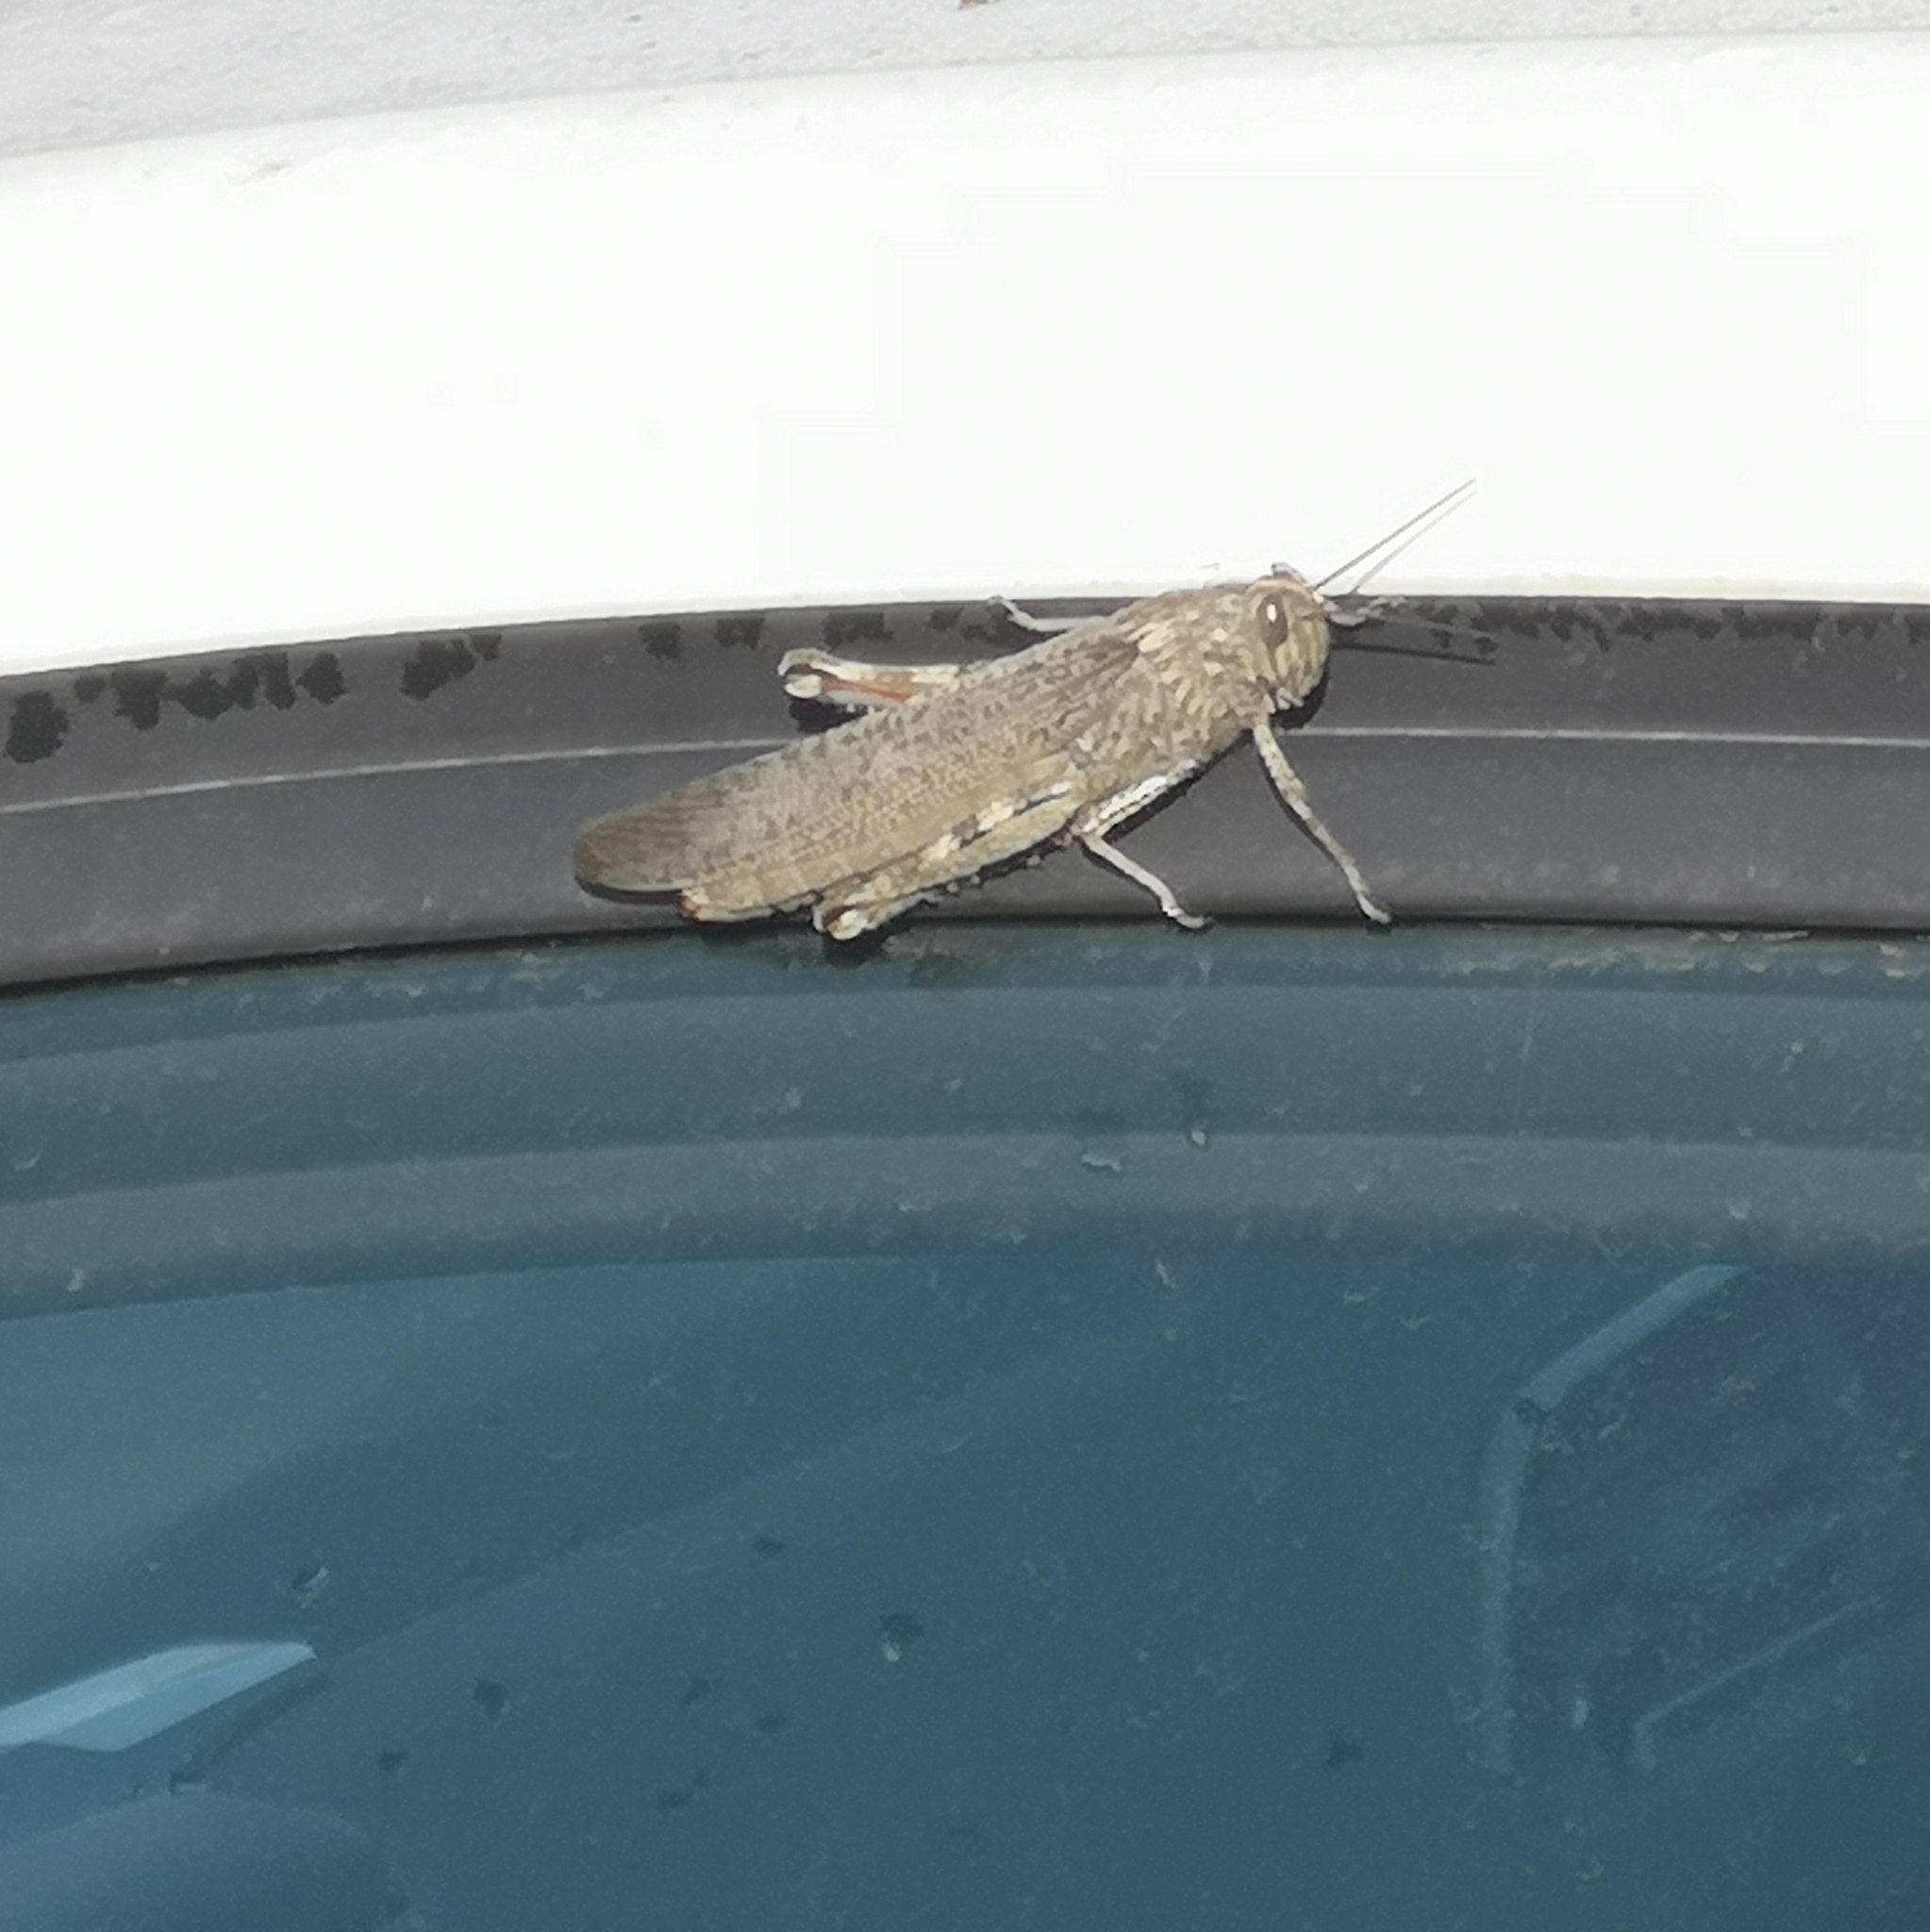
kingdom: Animalia
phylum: Arthropoda
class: Insecta
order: Orthoptera
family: Acrididae
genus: Anacridium
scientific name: Anacridium aegyptium
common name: Egyptian grasshopper
